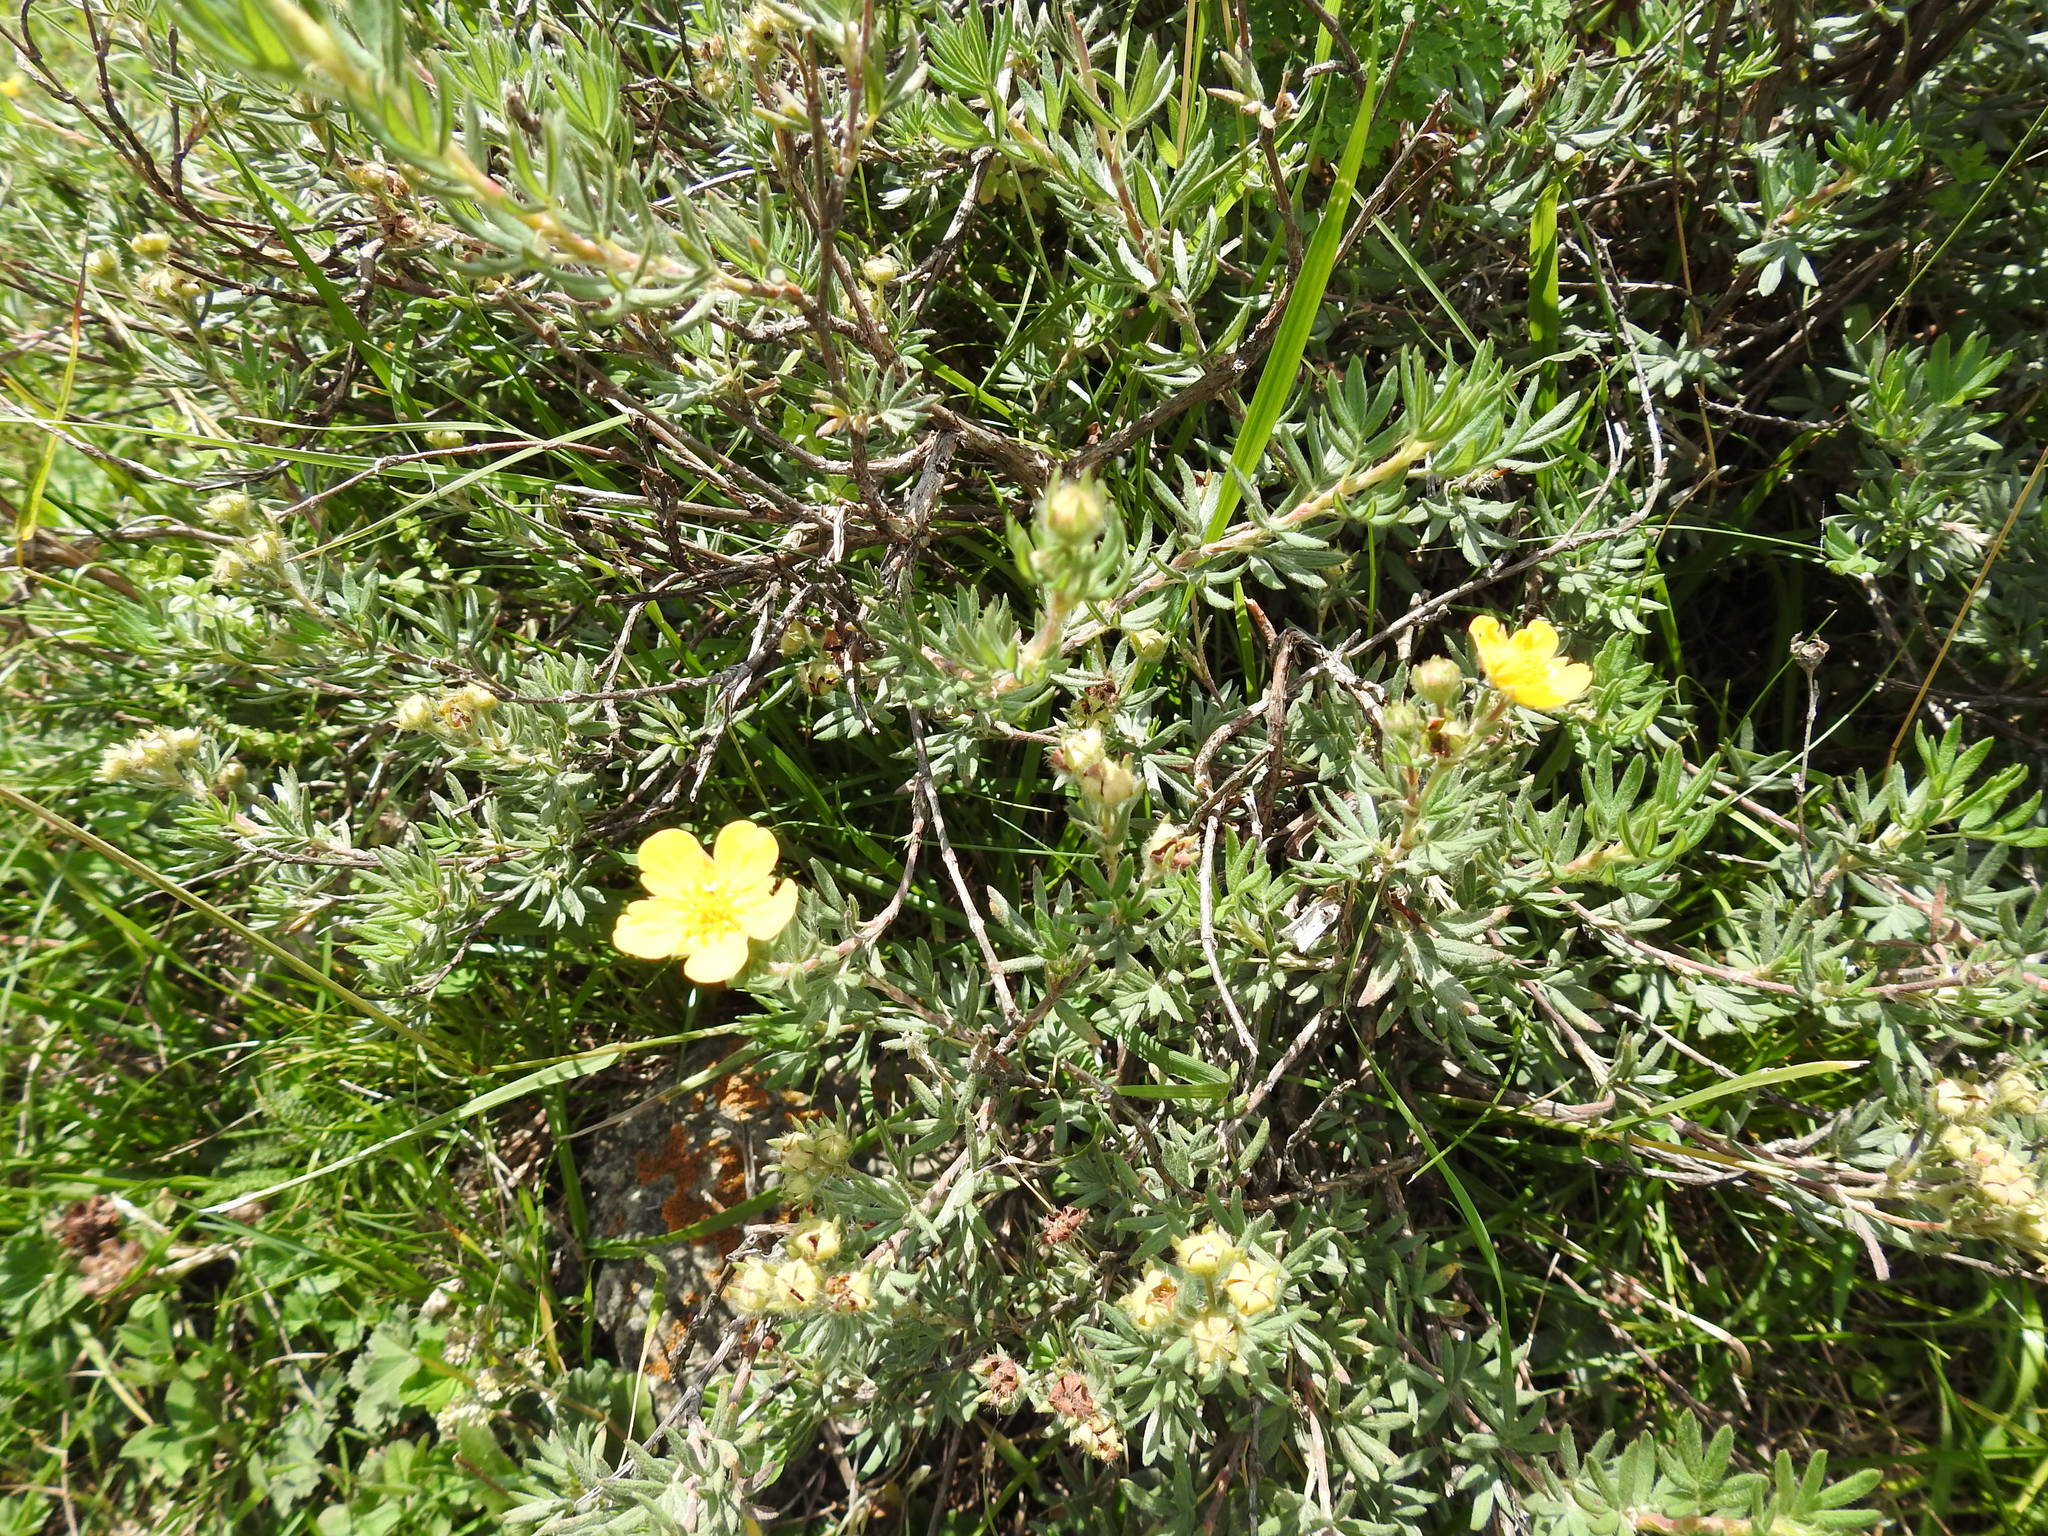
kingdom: Plantae
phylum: Tracheophyta
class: Magnoliopsida
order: Rosales
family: Rosaceae
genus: Dasiphora
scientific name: Dasiphora fruticosa
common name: Shrubby cinquefoil
